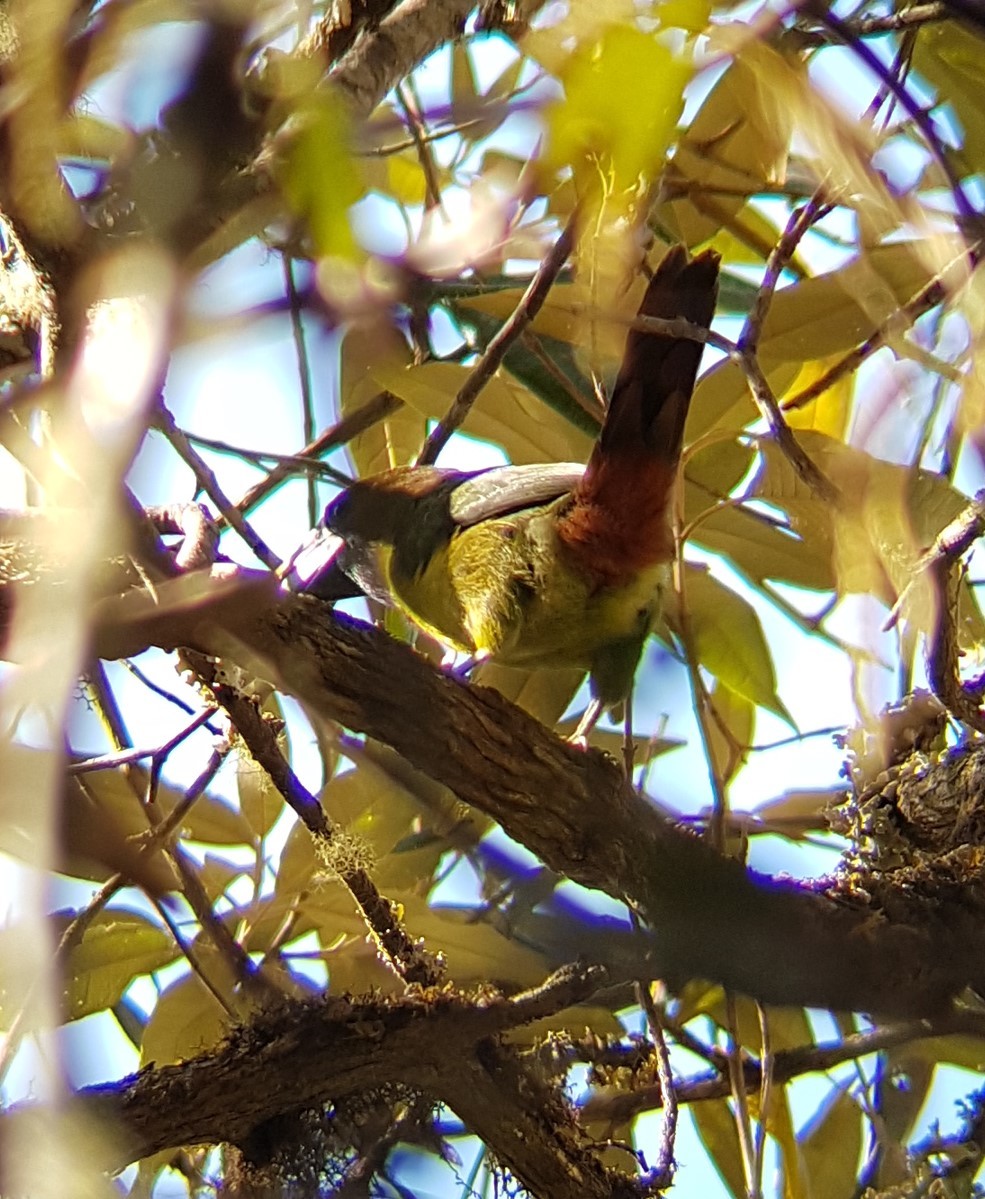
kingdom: Animalia
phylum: Chordata
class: Aves
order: Piciformes
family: Ramphastidae
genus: Aulacorhynchus
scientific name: Aulacorhynchus prasinus
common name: Emerald toucanet
